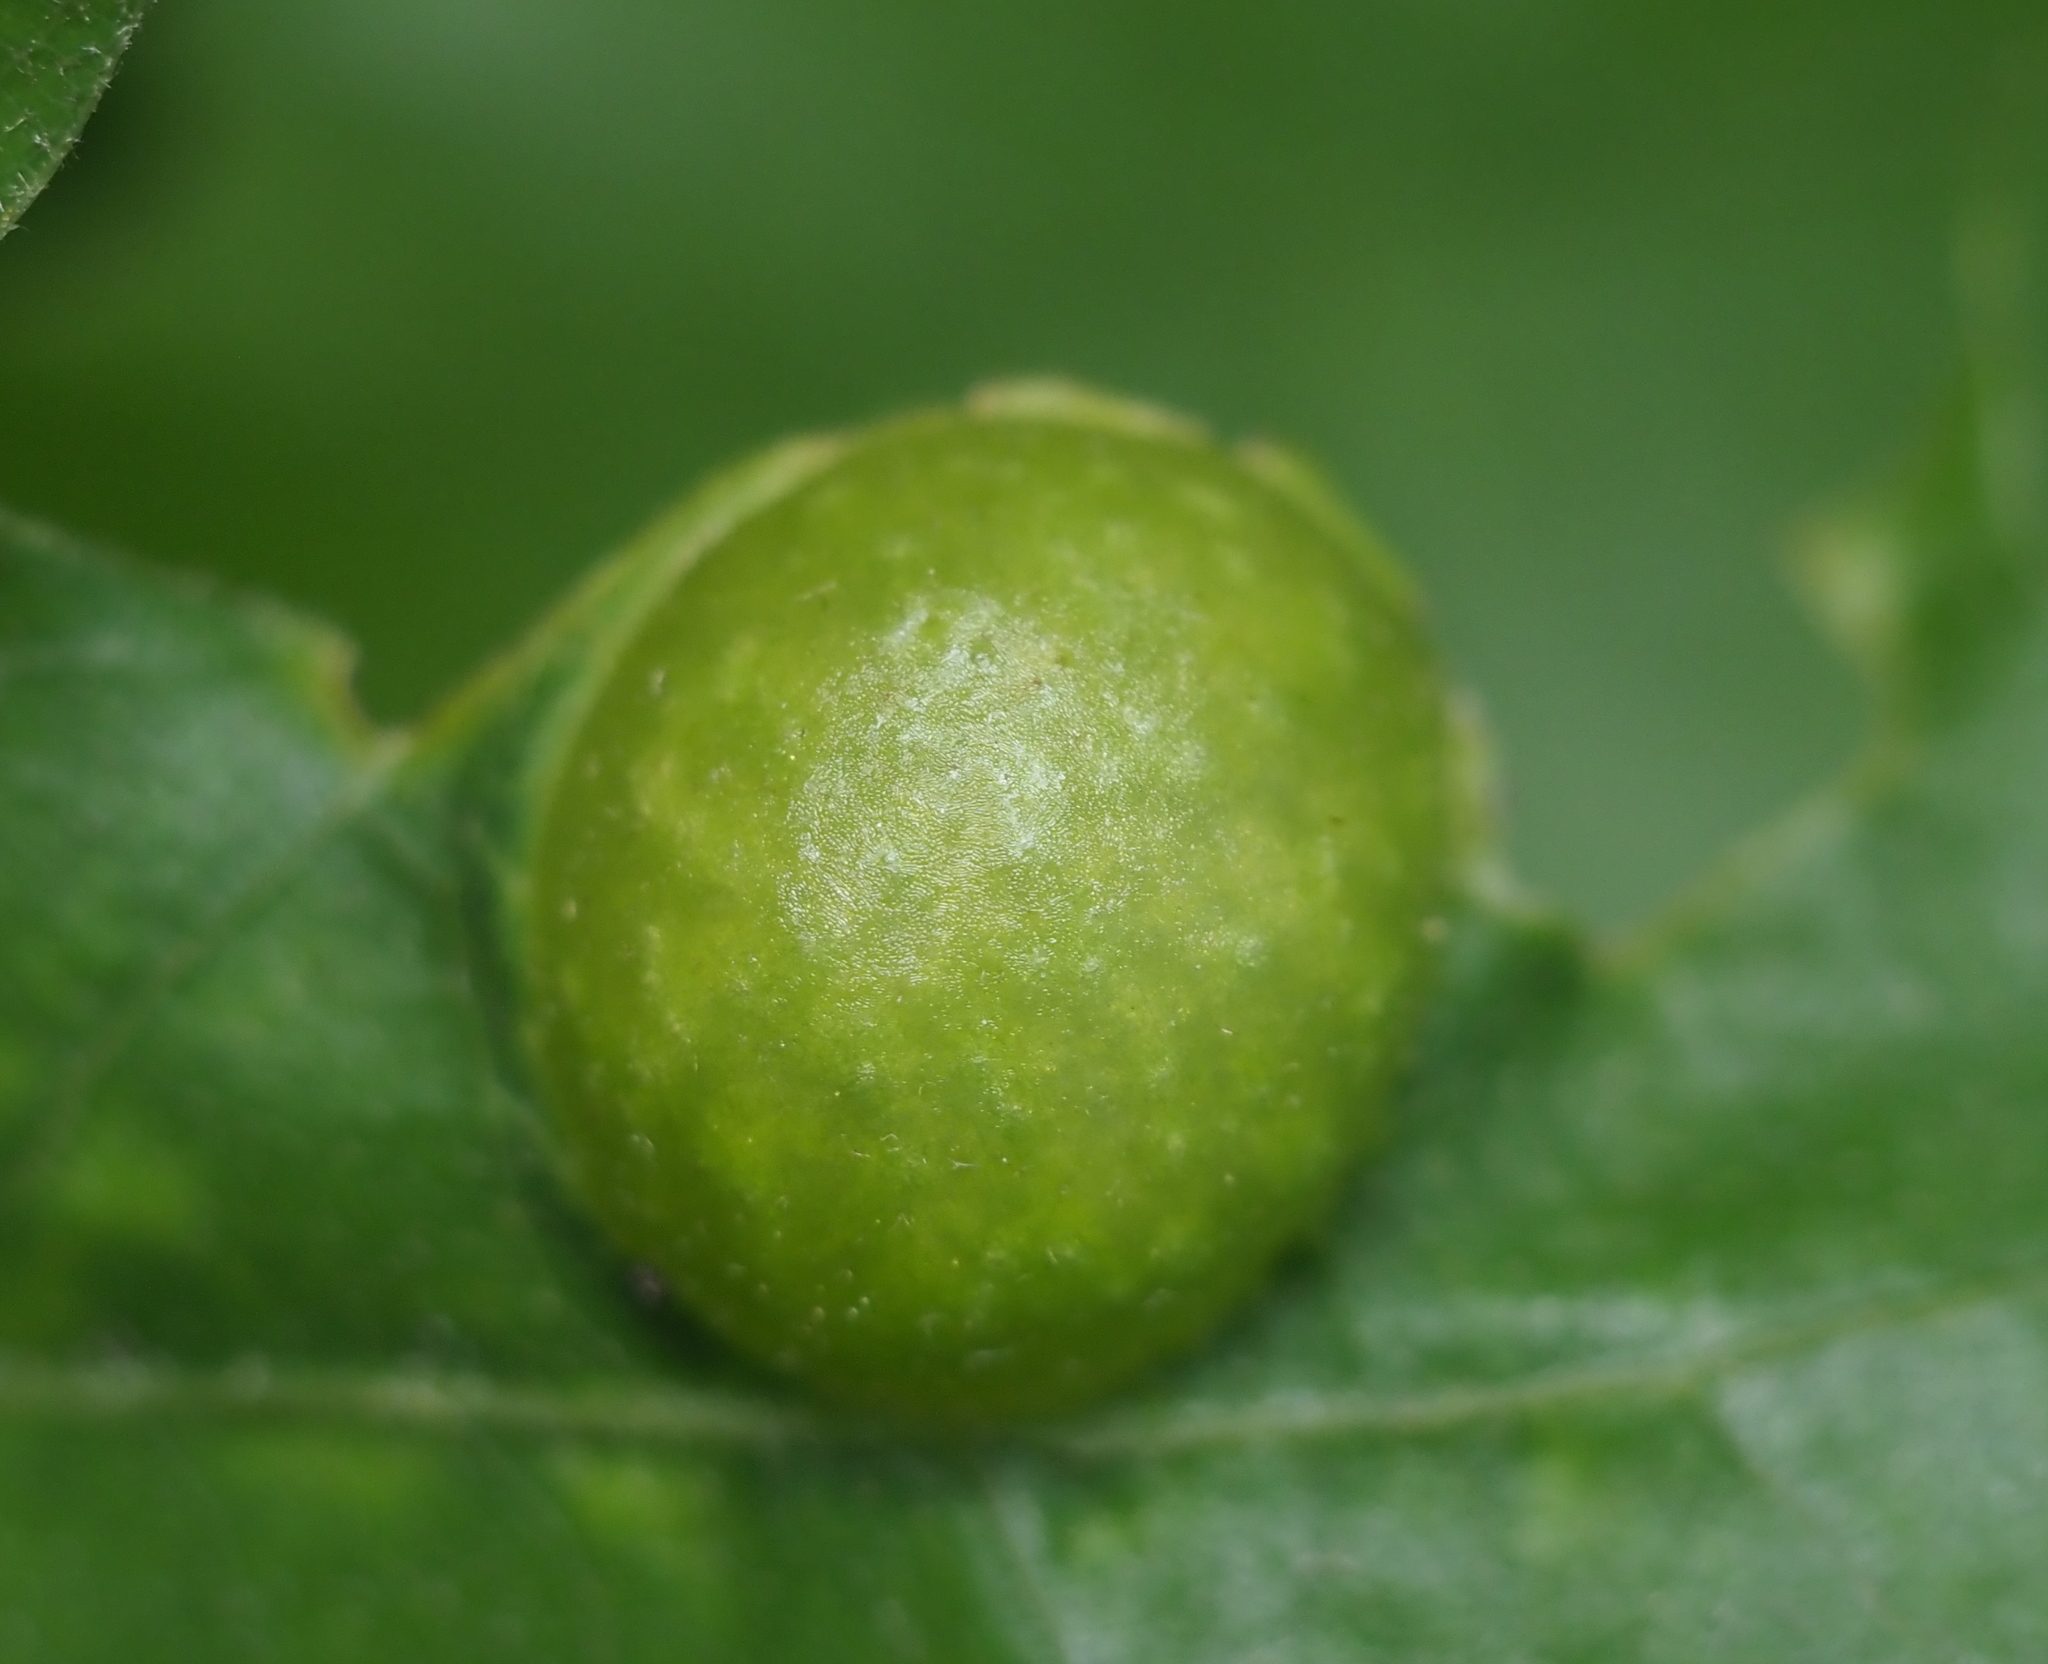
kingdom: Animalia
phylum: Arthropoda
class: Insecta
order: Hymenoptera
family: Cynipidae
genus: Amphibolips
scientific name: Amphibolips
